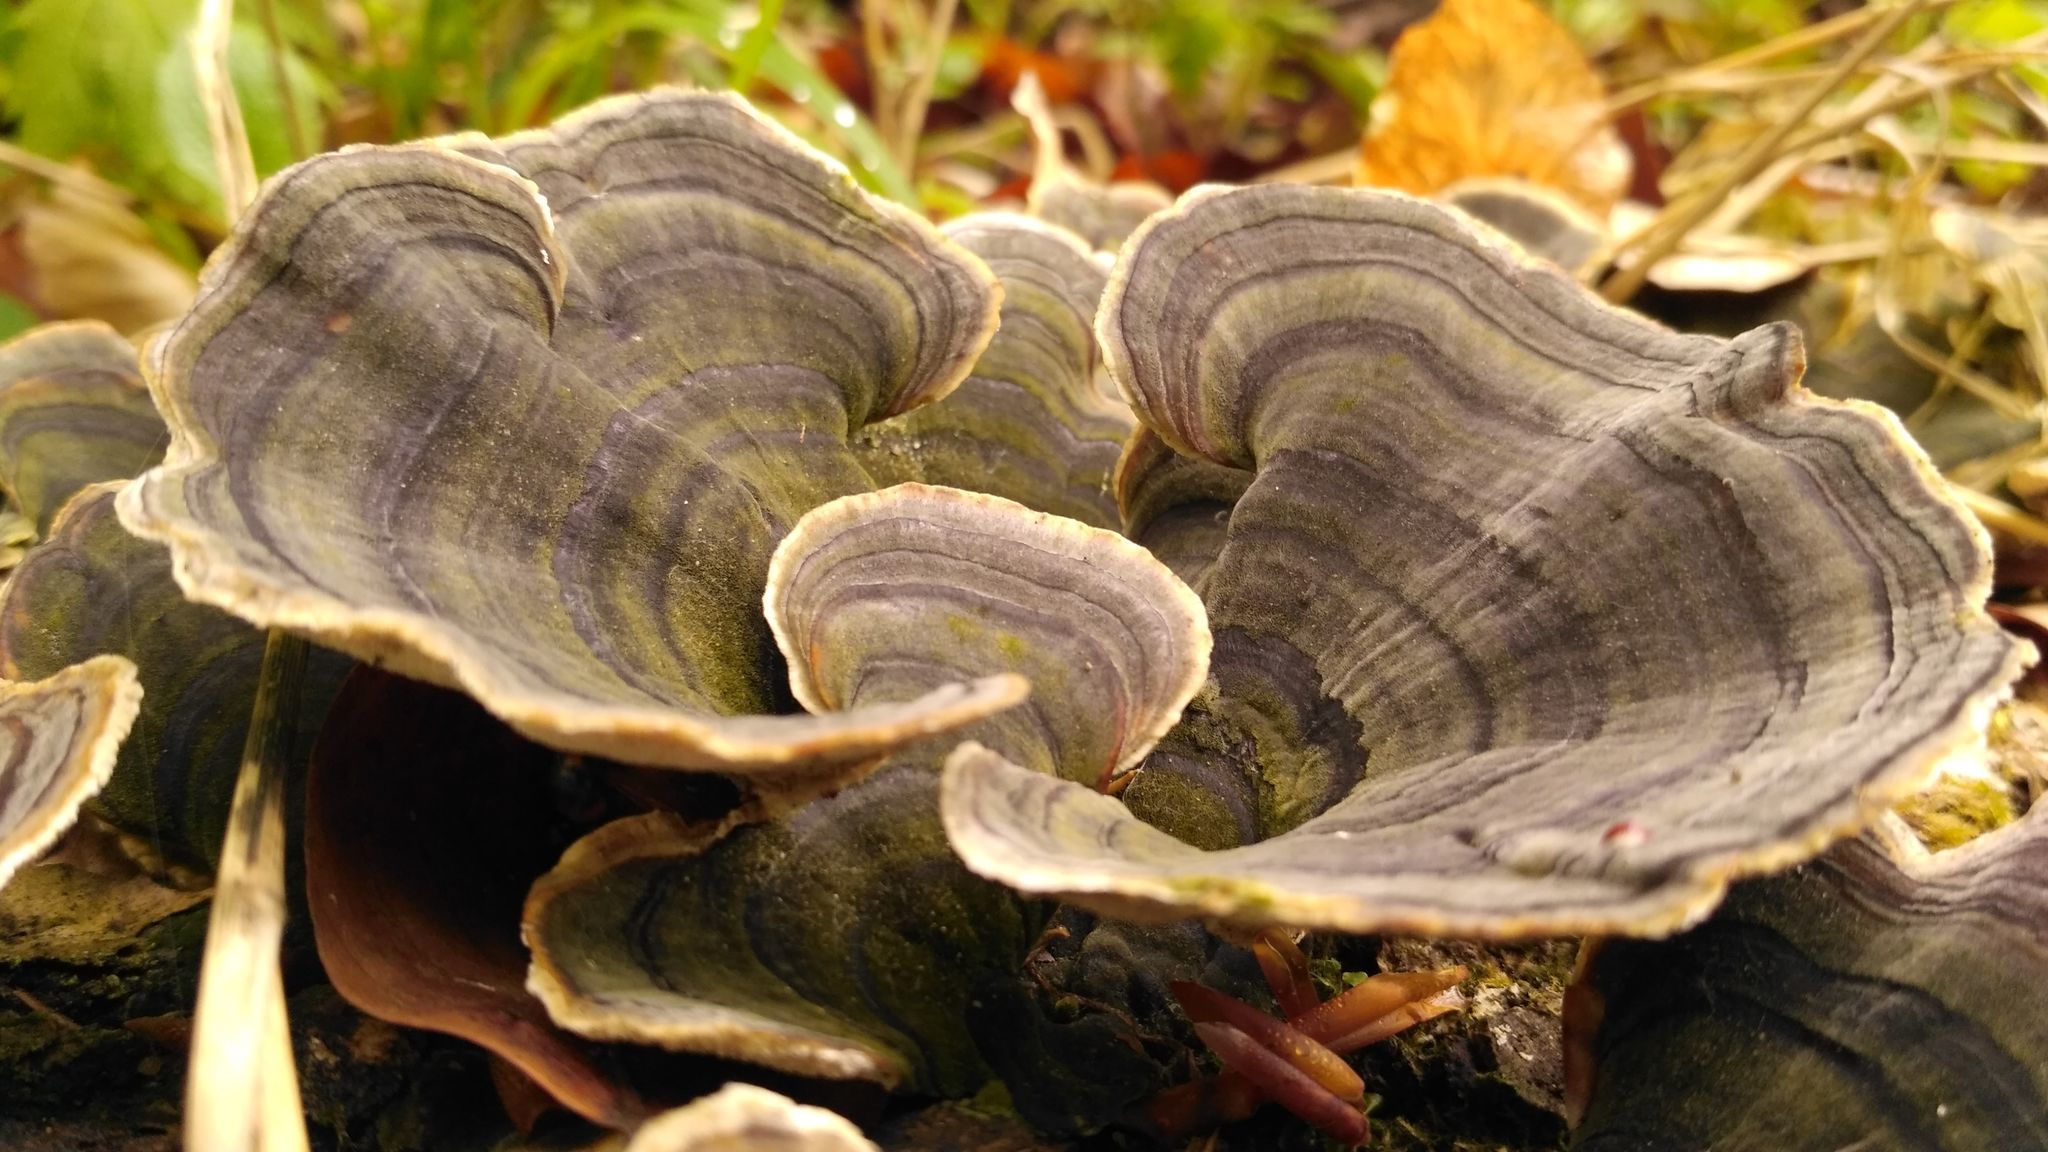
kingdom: Fungi
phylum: Basidiomycota
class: Agaricomycetes
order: Polyporales
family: Polyporaceae
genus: Trametes
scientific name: Trametes versicolor
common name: Turkeytail
